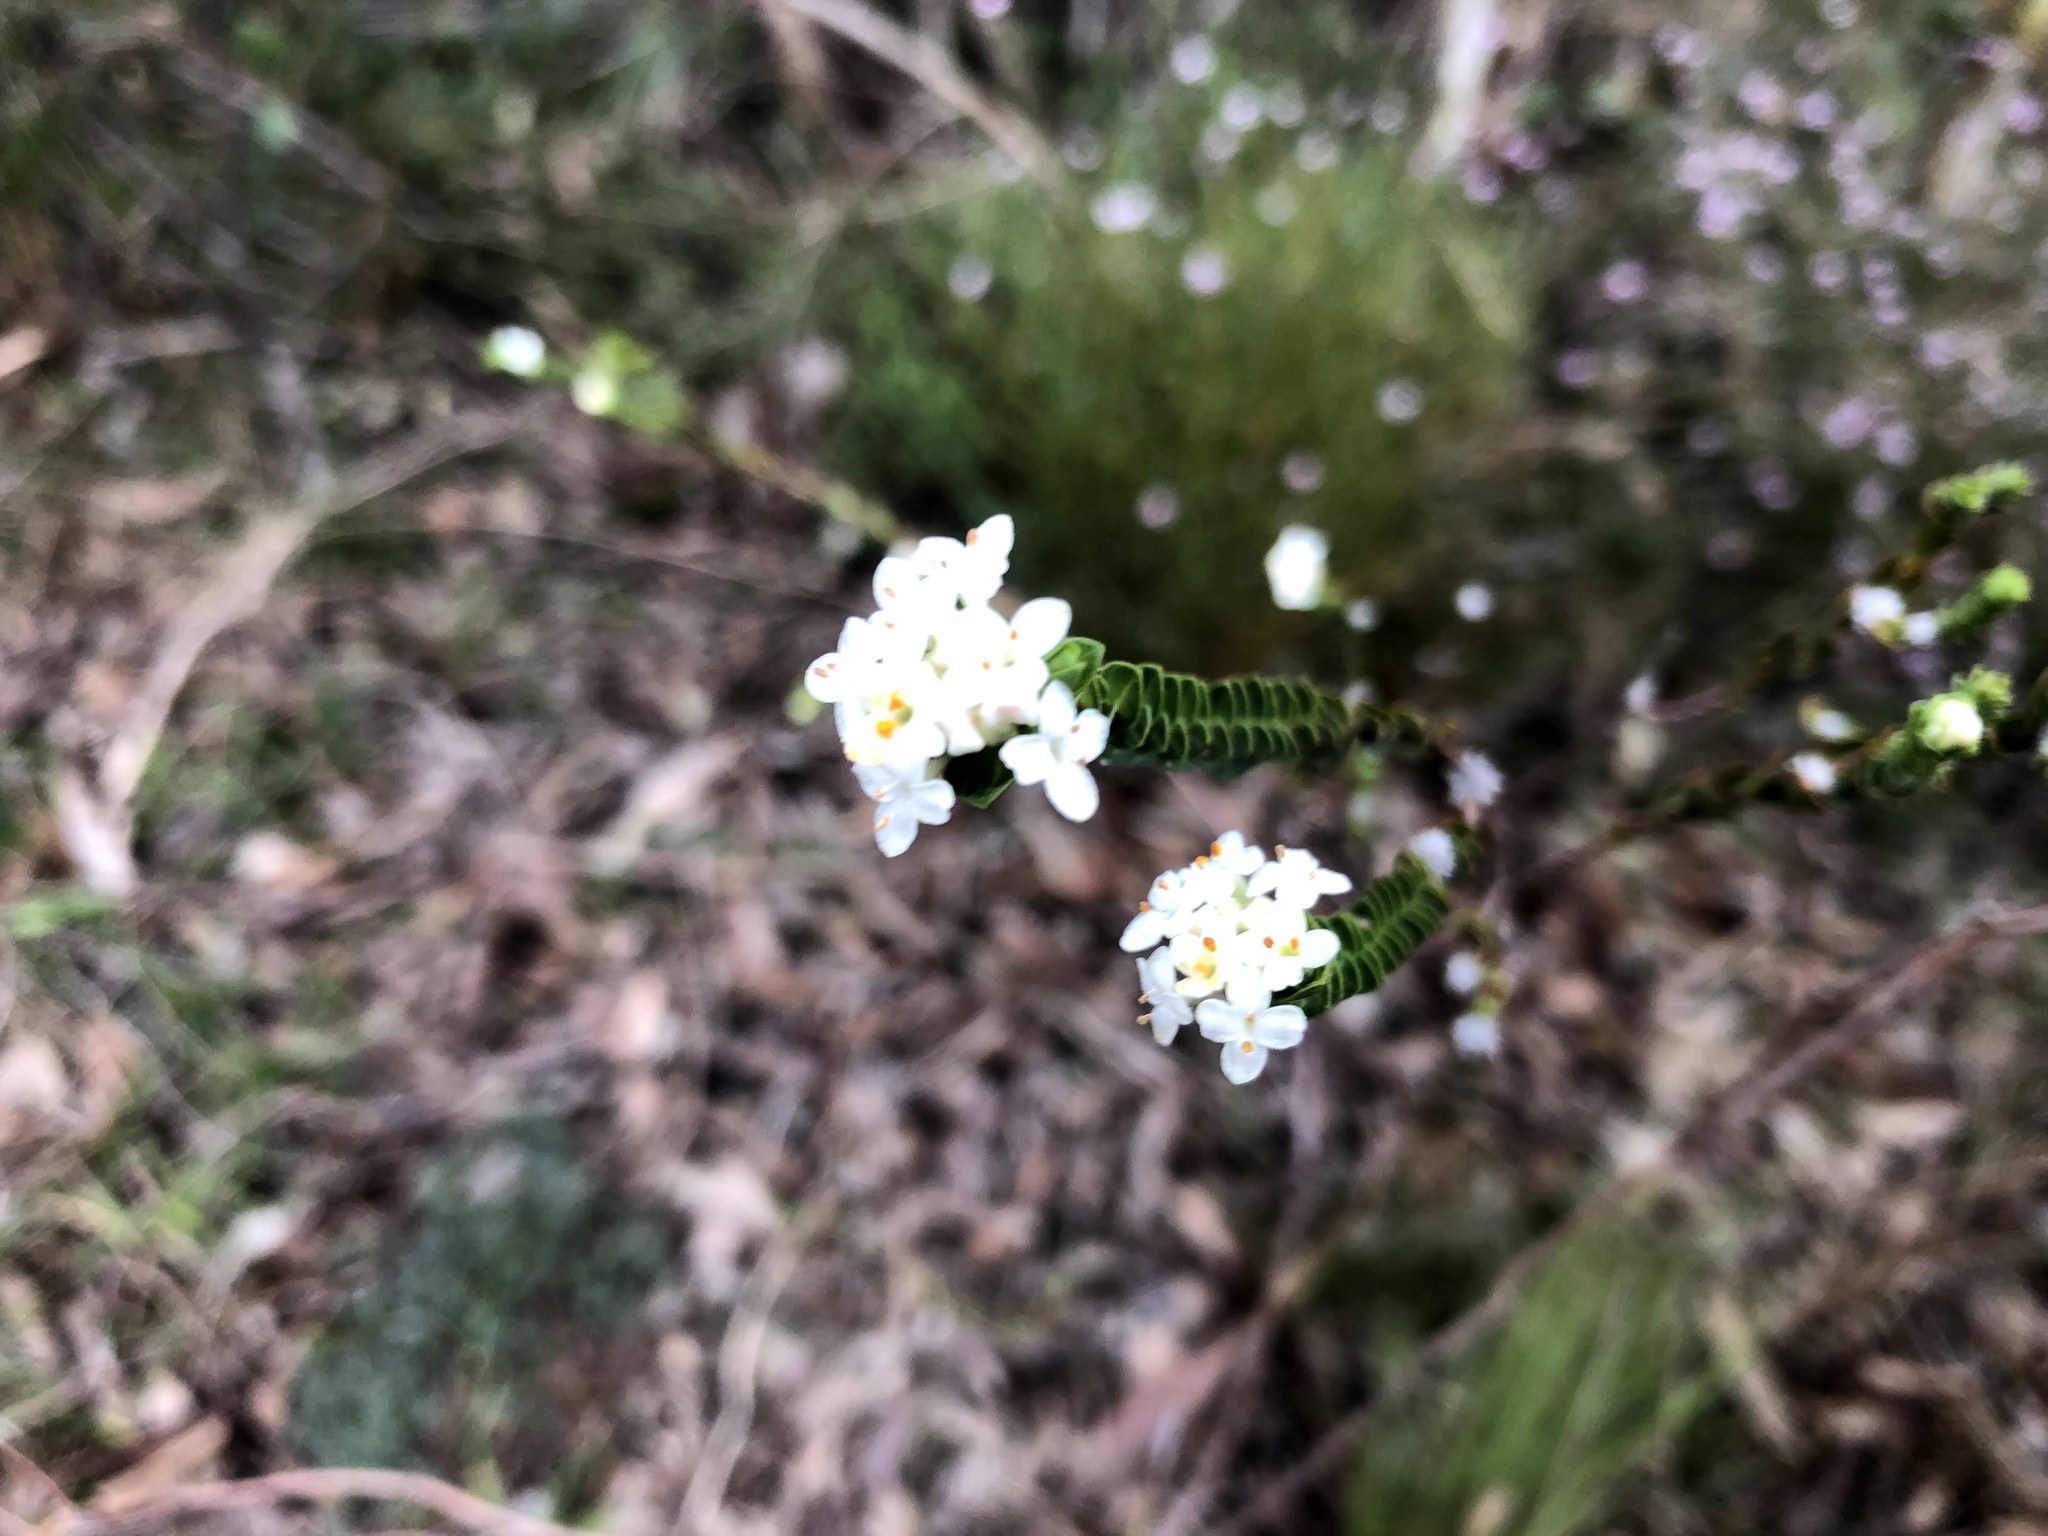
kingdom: Plantae
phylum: Tracheophyta
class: Magnoliopsida
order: Malvales
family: Thymelaeaceae
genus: Pimelea
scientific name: Pimelea flava
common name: Yellow riceflower
